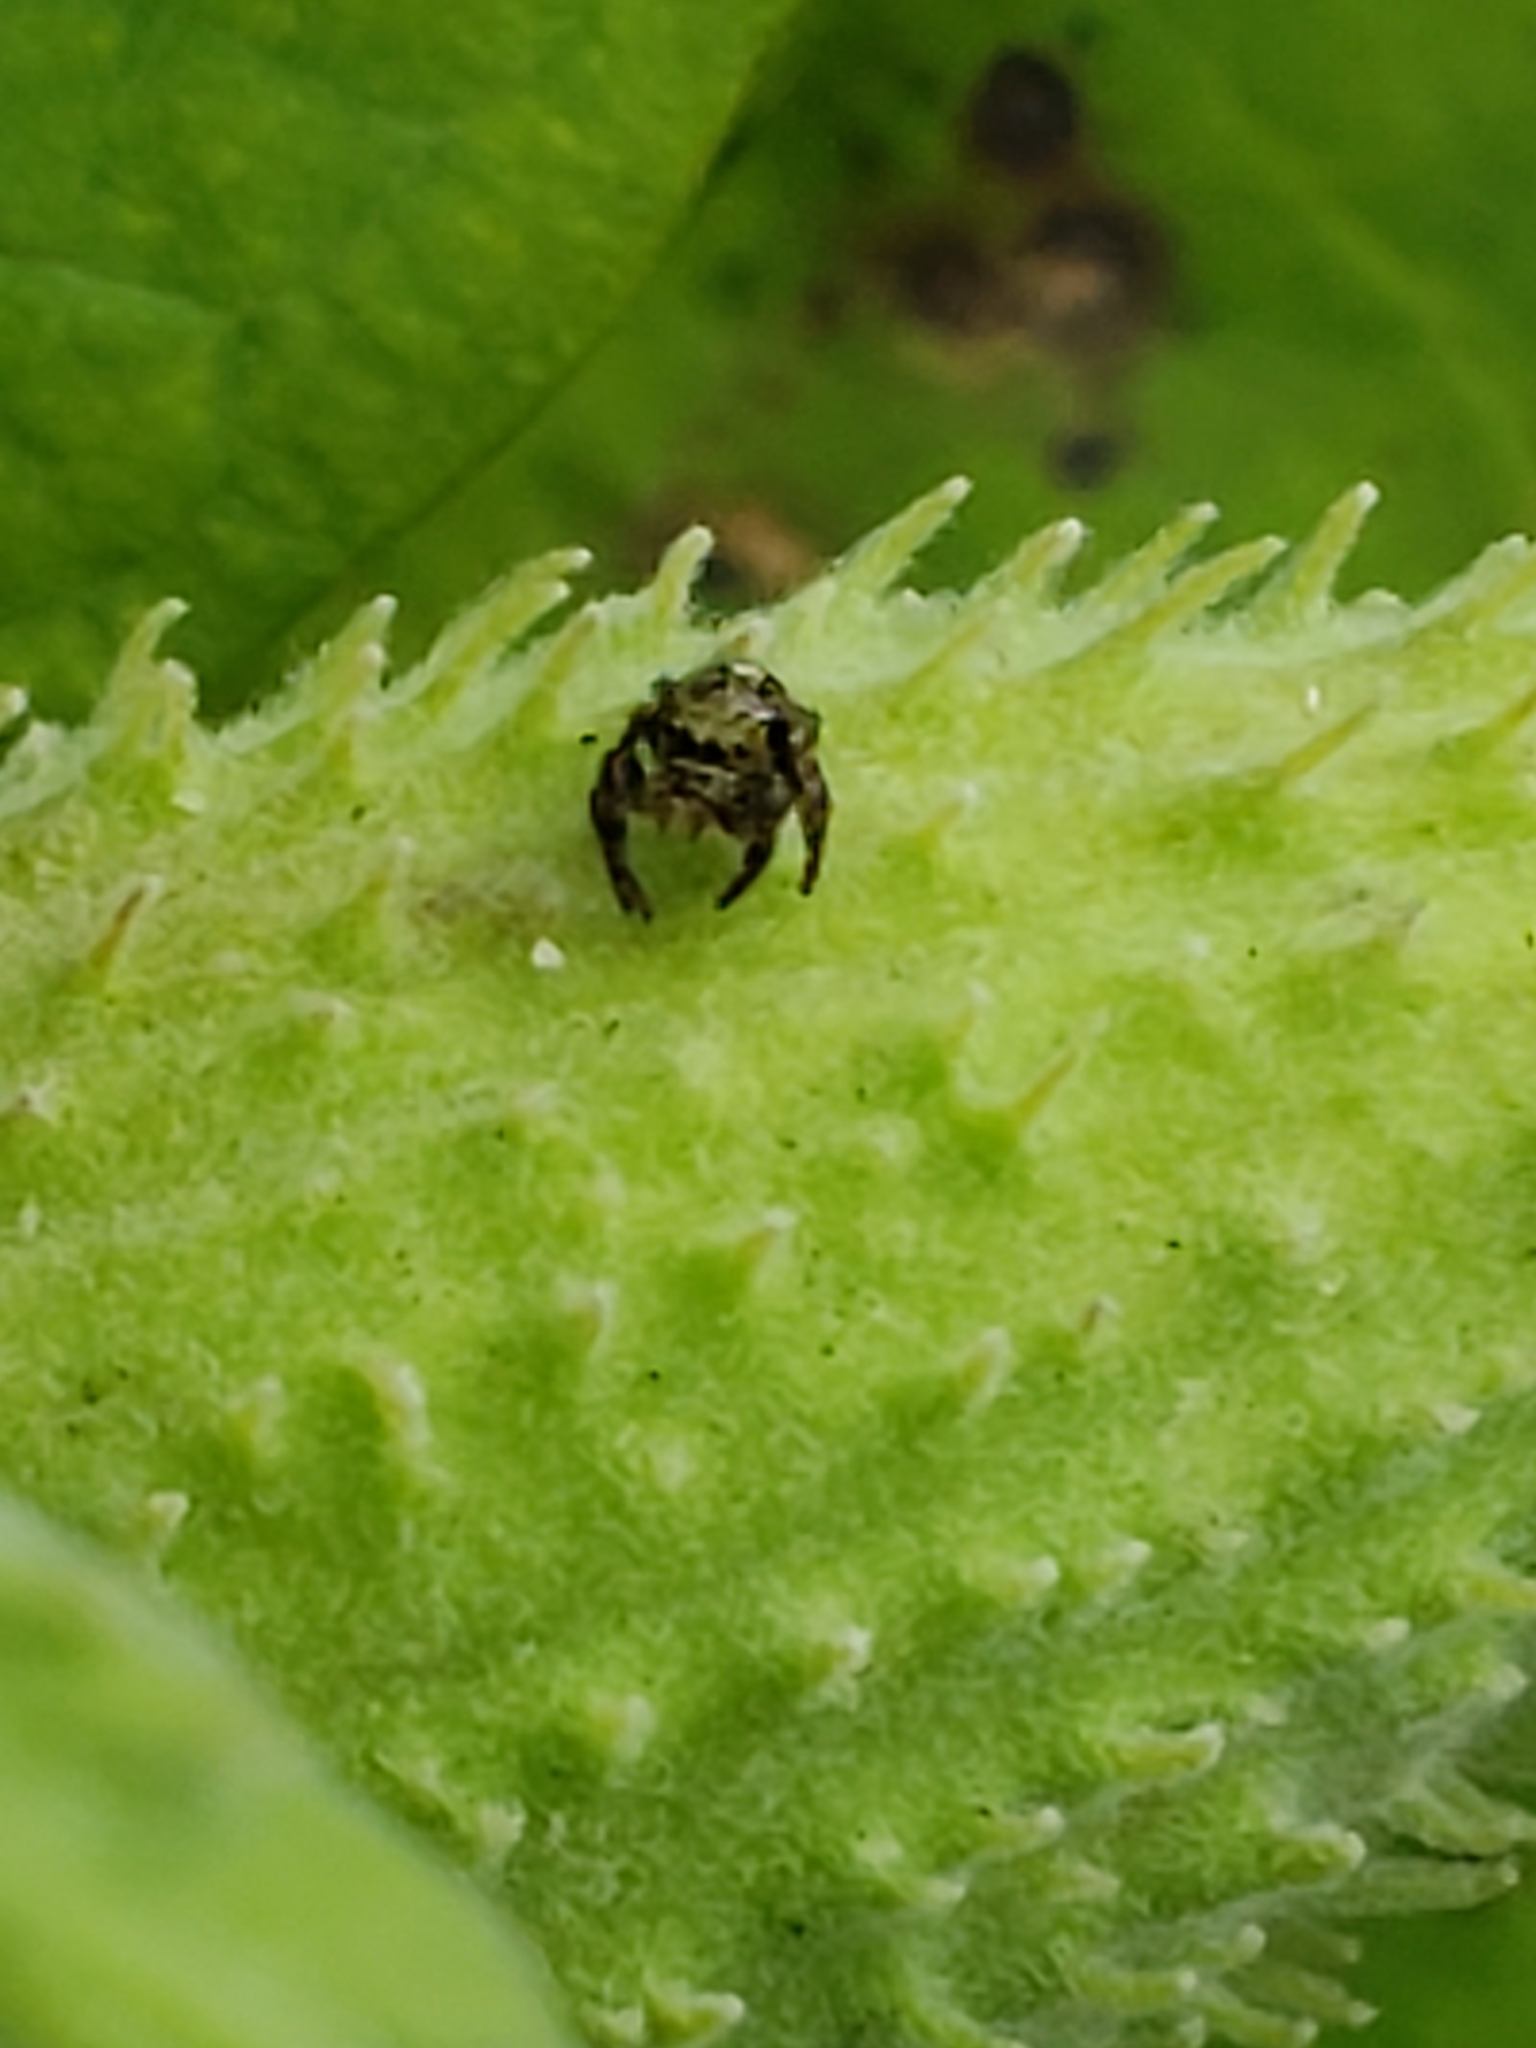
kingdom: Animalia
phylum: Arthropoda
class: Arachnida
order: Araneae
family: Salticidae
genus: Phidippus
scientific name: Phidippus audax
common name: Bold jumper
